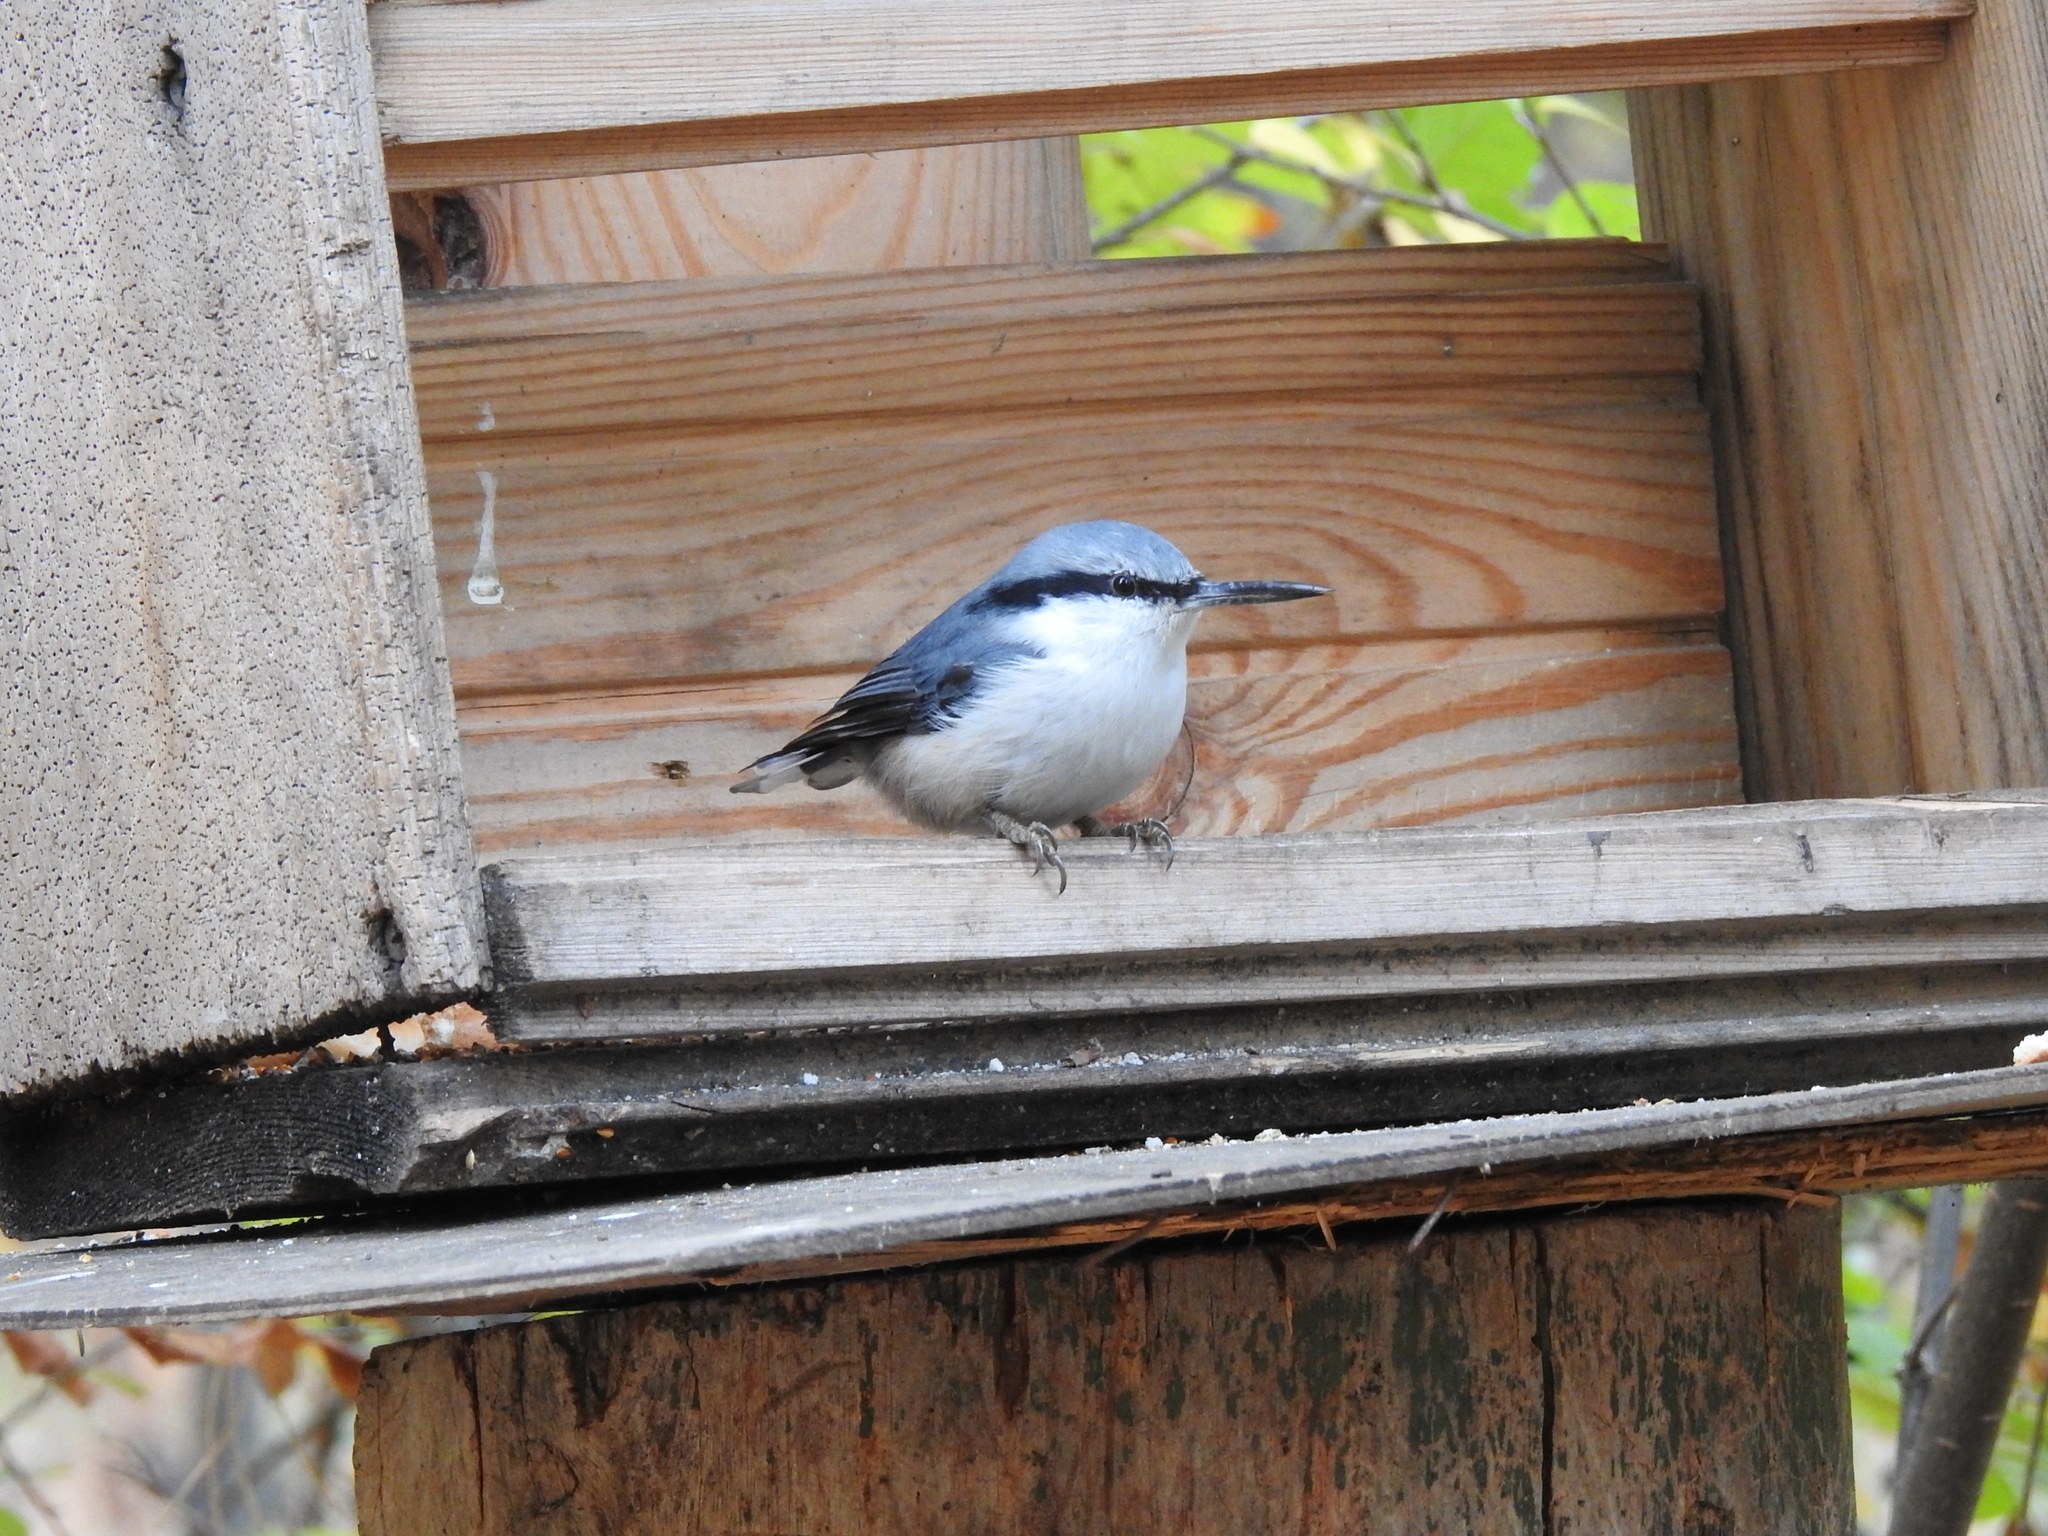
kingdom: Animalia
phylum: Chordata
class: Aves
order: Passeriformes
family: Sittidae
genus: Sitta
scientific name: Sitta europaea
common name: Eurasian nuthatch
